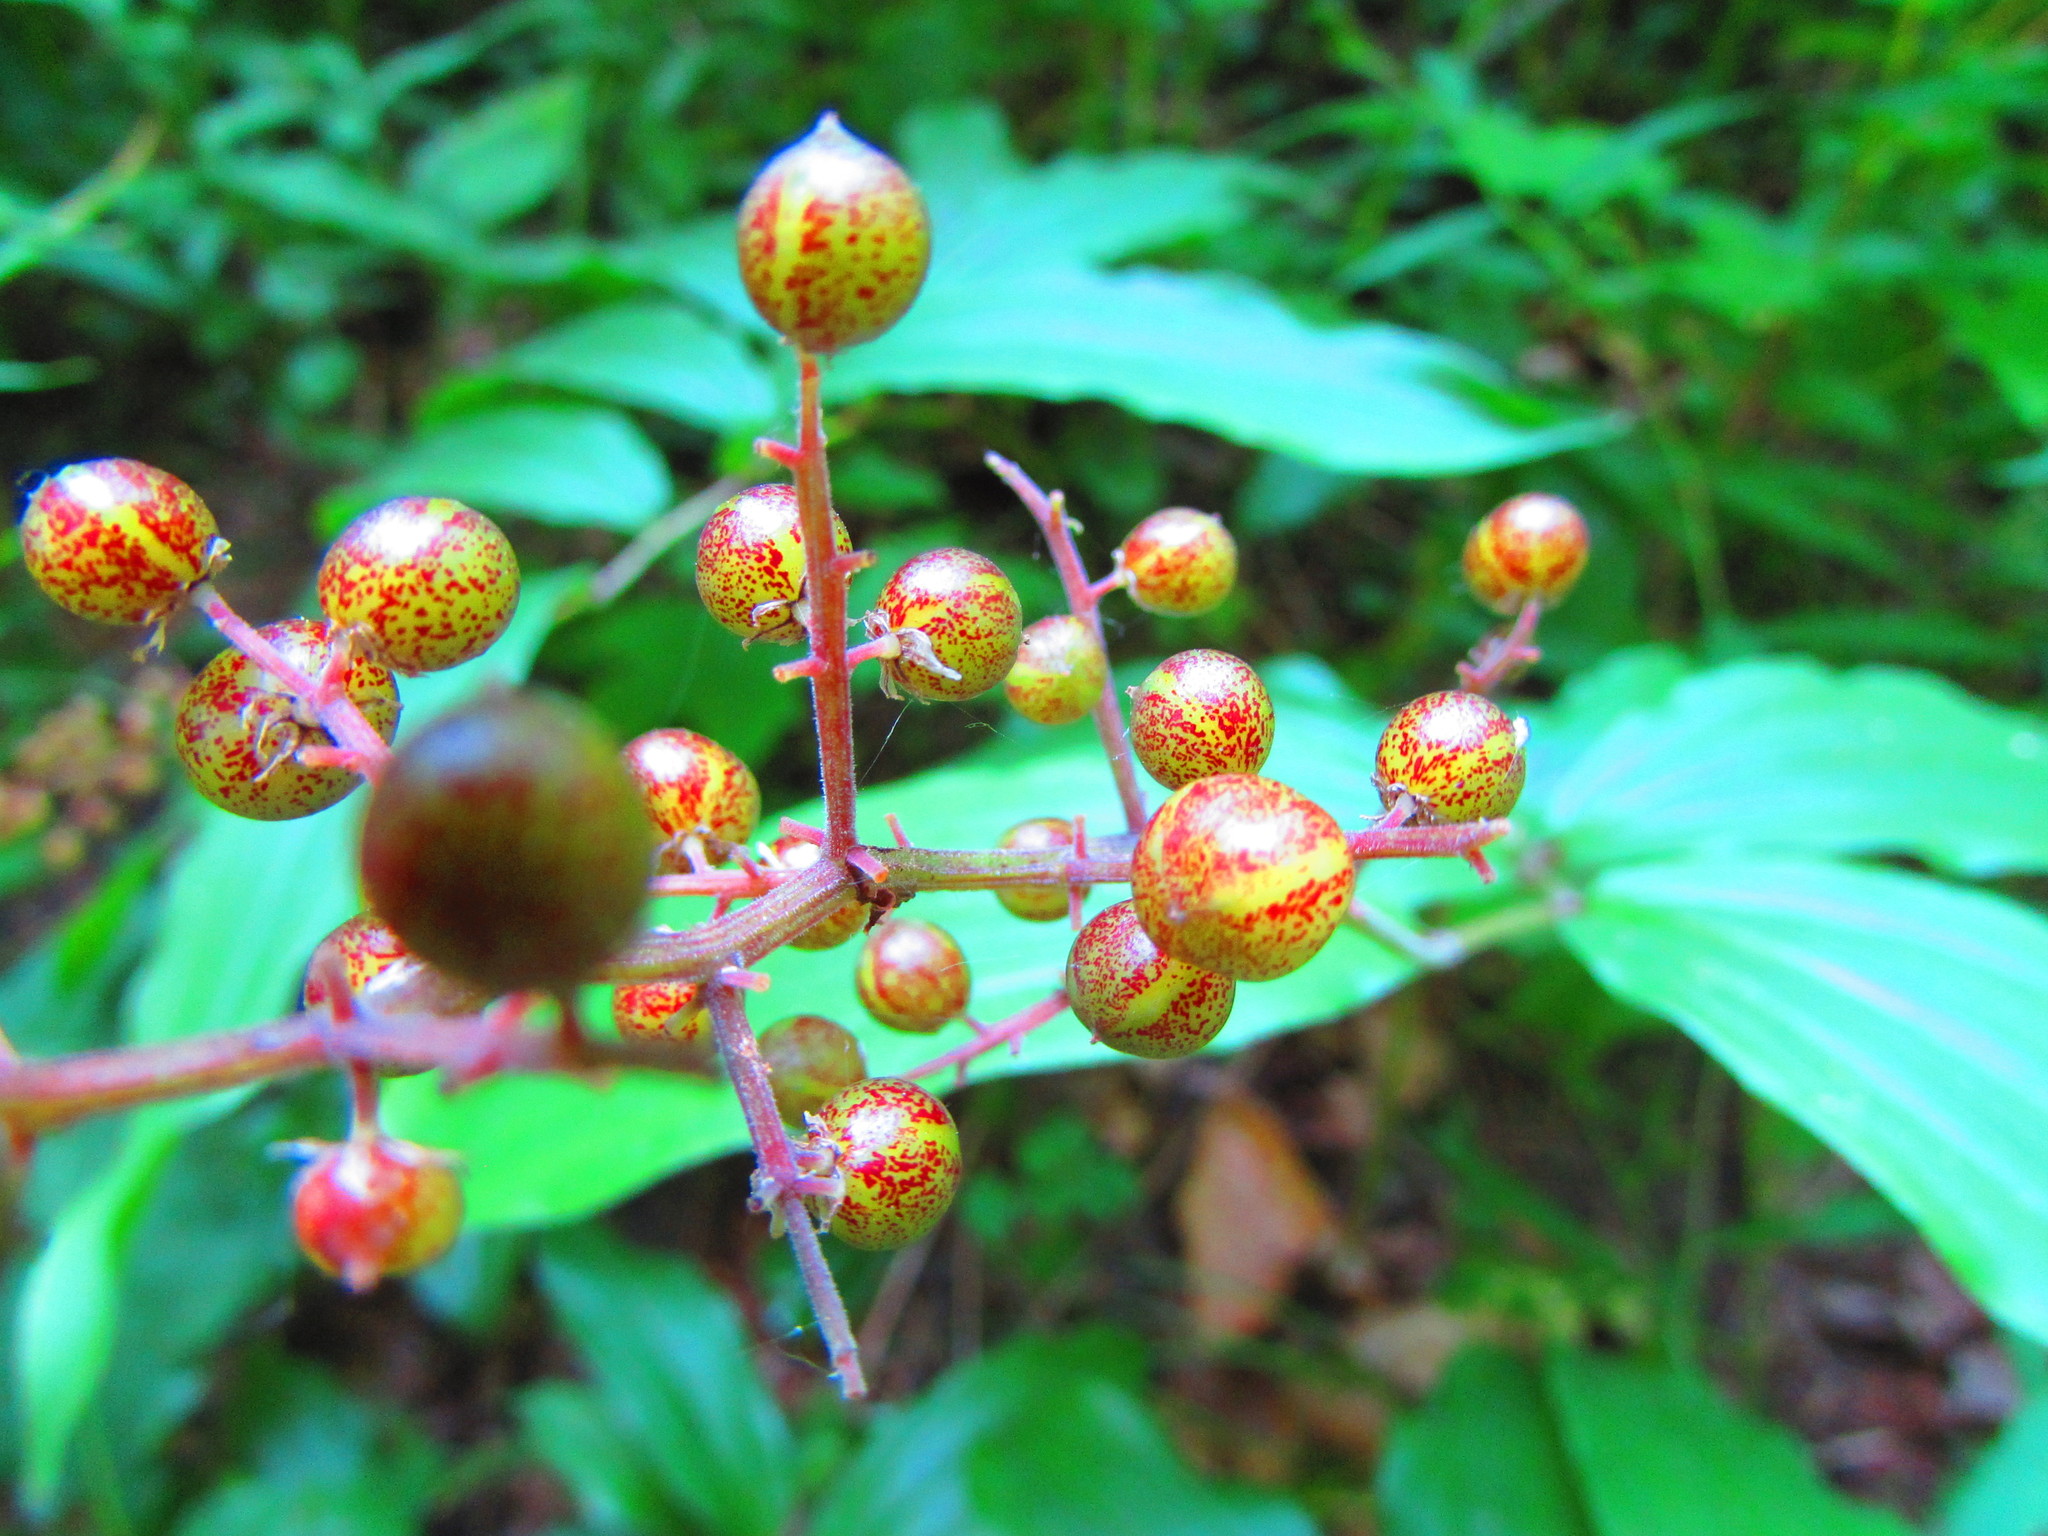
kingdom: Plantae
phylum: Tracheophyta
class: Liliopsida
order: Asparagales
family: Asparagaceae
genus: Maianthemum
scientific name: Maianthemum racemosum
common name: False spikenard
